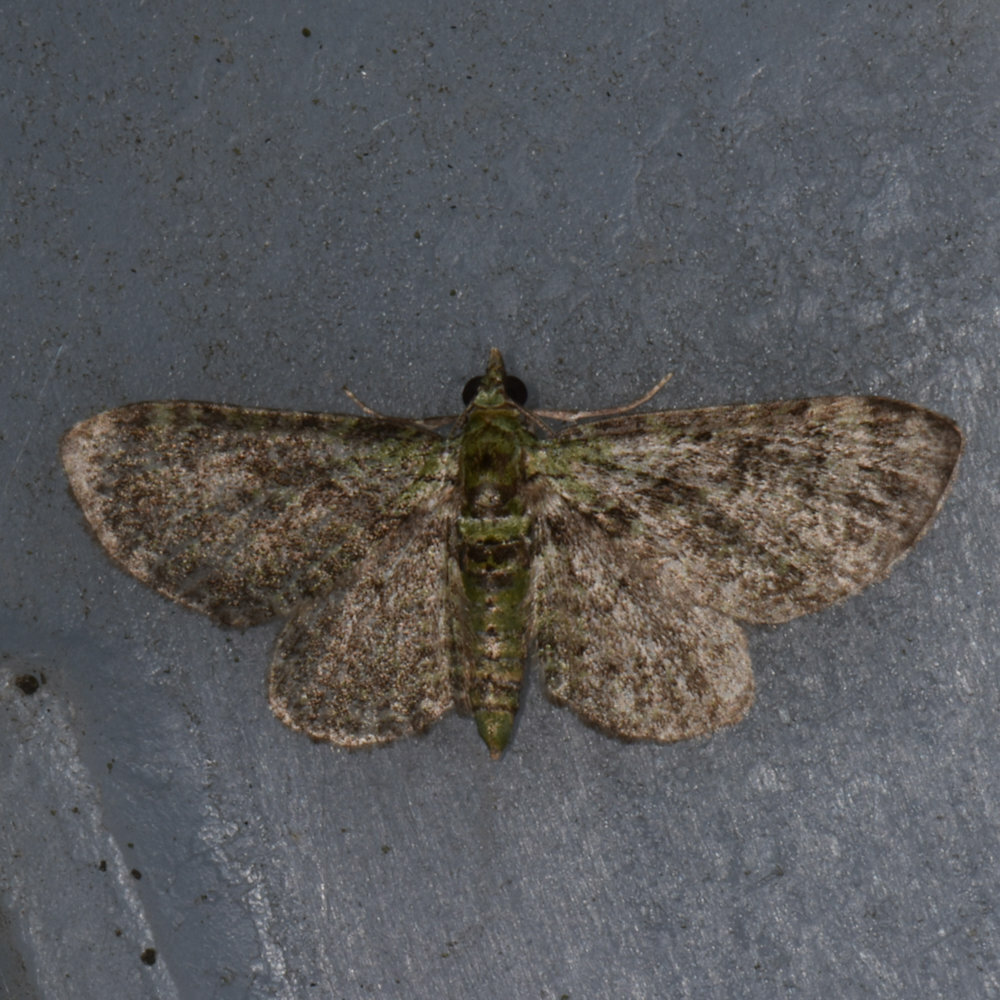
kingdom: Animalia
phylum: Arthropoda
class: Insecta
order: Lepidoptera
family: Geometridae
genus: Pasiphila
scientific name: Pasiphila rectangulata
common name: Green pug
